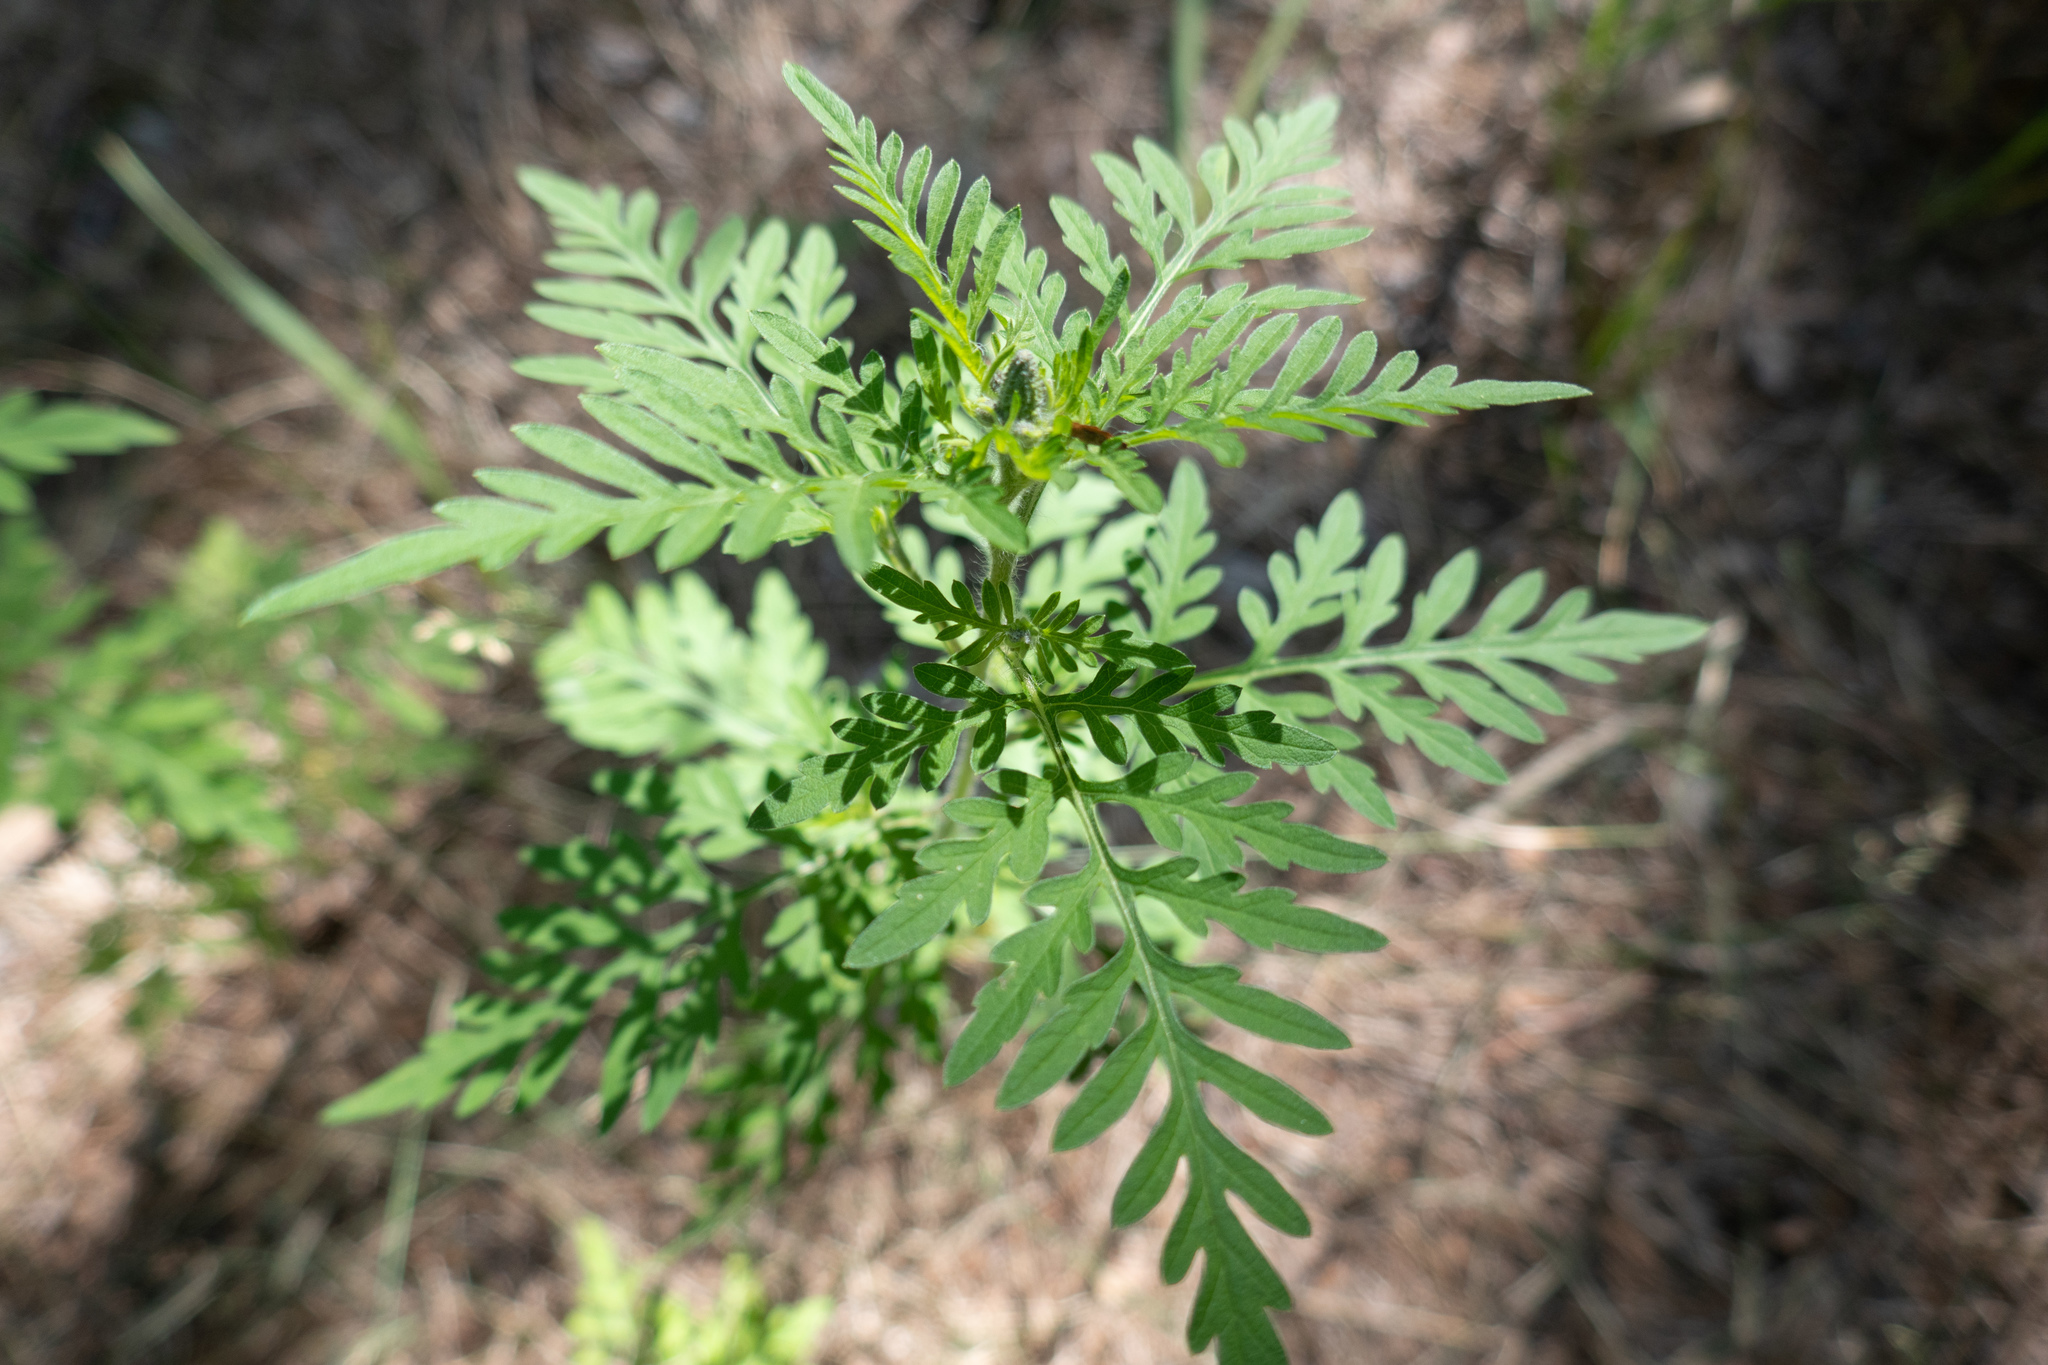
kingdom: Plantae
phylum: Tracheophyta
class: Magnoliopsida
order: Asterales
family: Asteraceae
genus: Ambrosia
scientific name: Ambrosia artemisiifolia
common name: Annual ragweed
